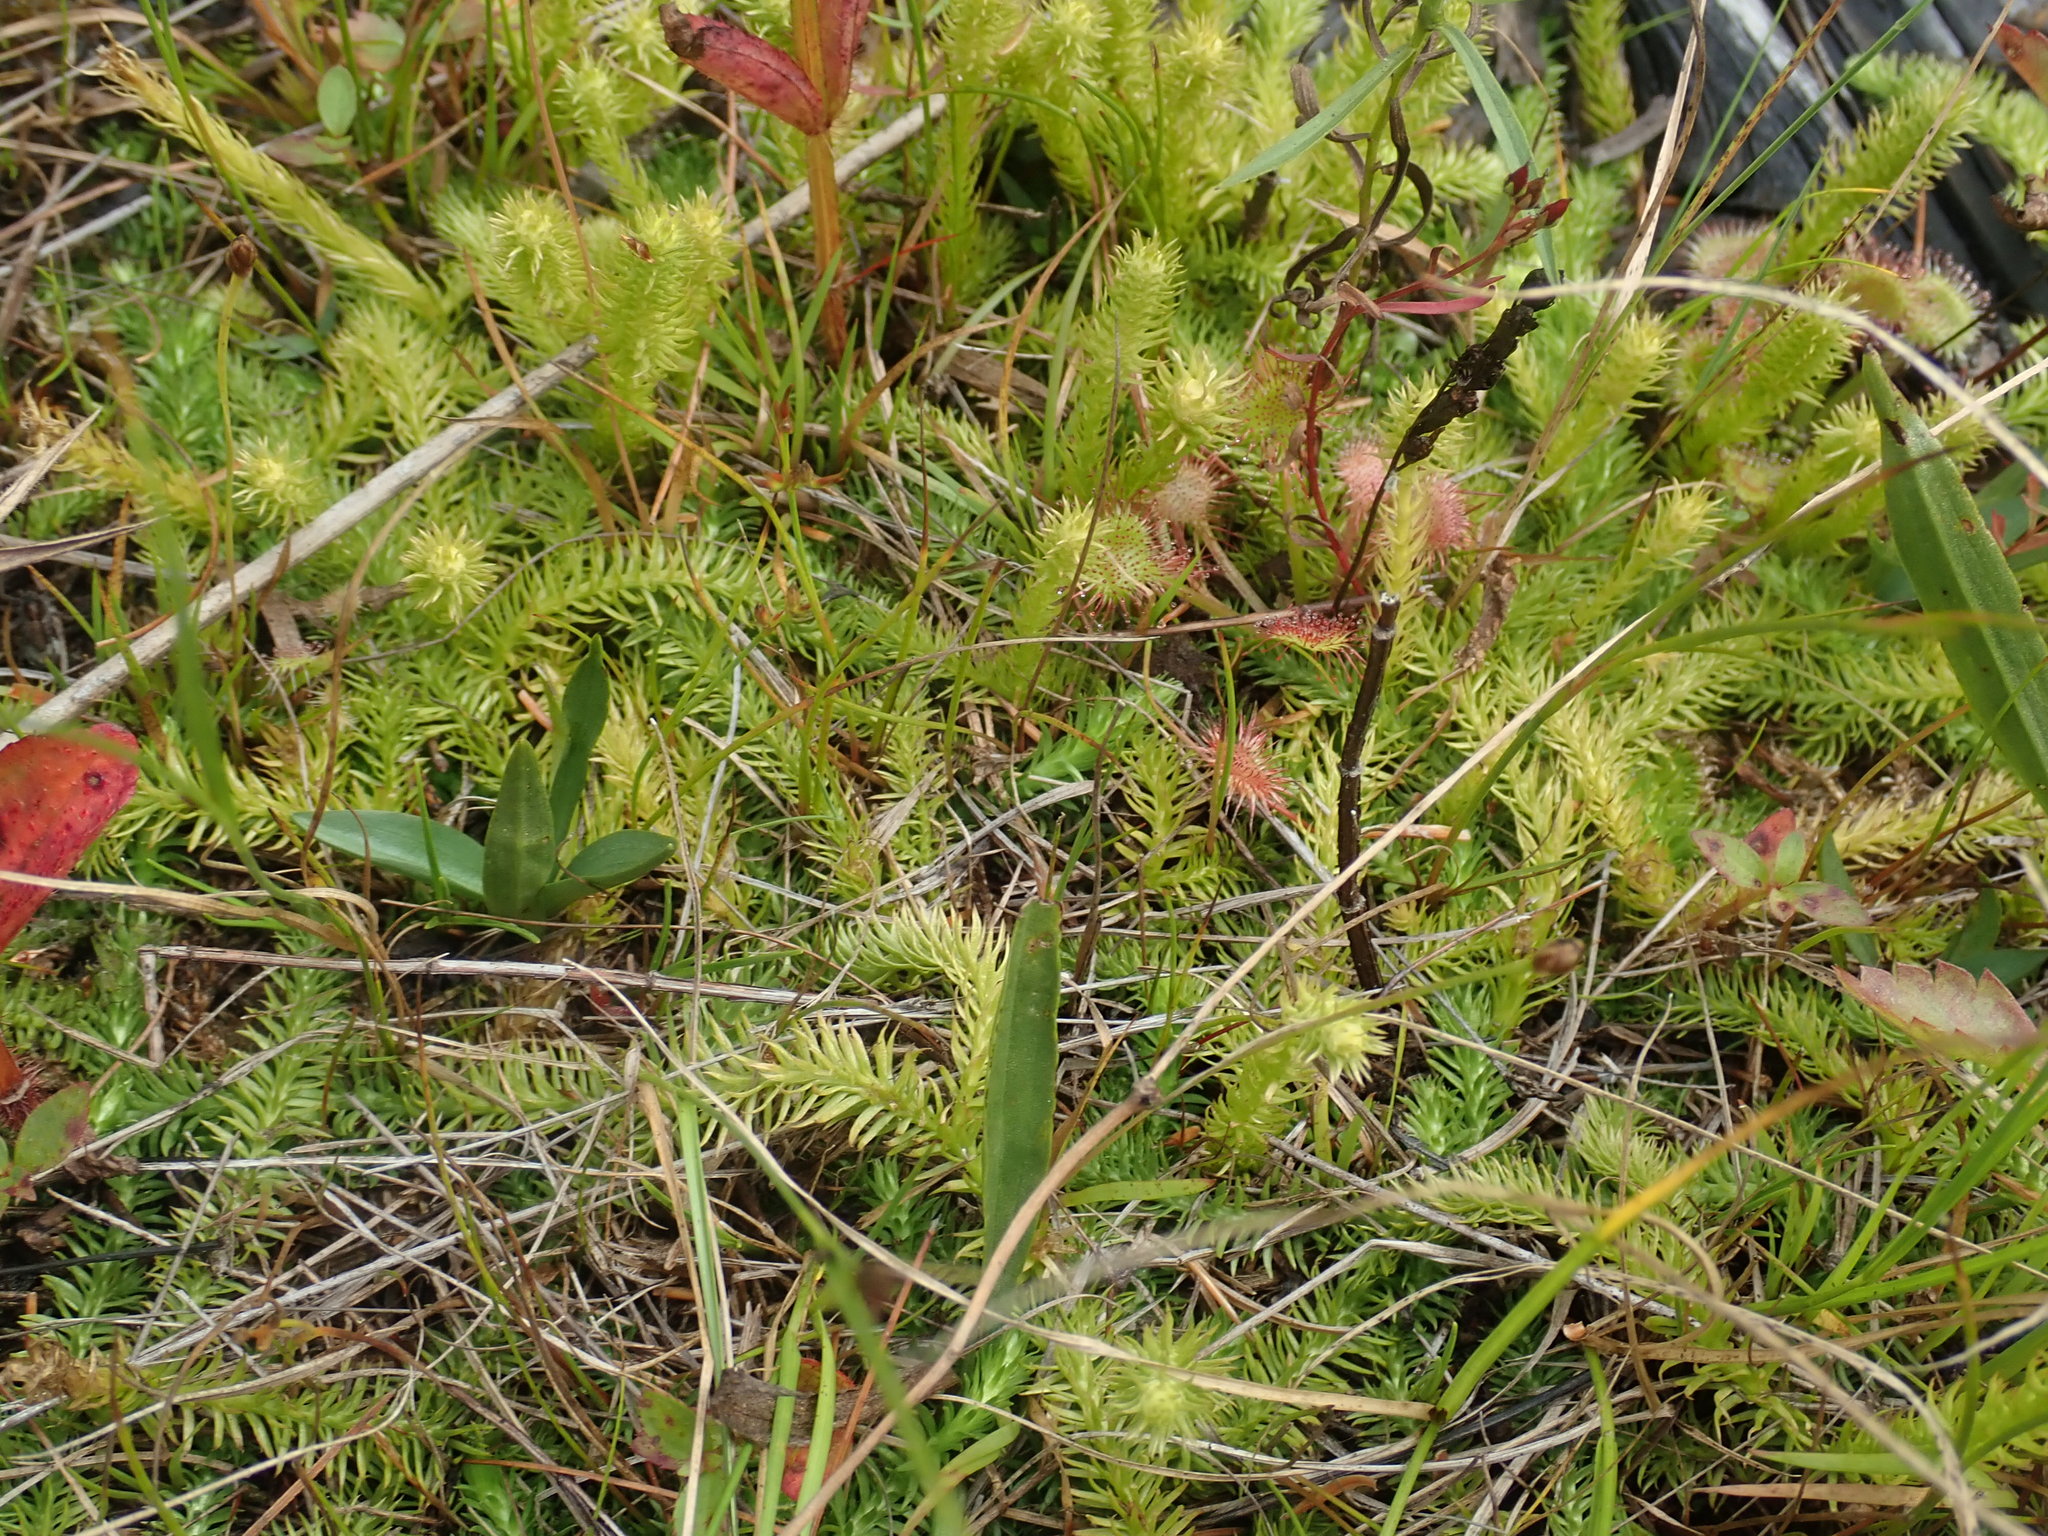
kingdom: Plantae
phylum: Tracheophyta
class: Lycopodiopsida
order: Lycopodiales
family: Lycopodiaceae
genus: Lycopodiella
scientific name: Lycopodiella inundata
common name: Marsh clubmoss
